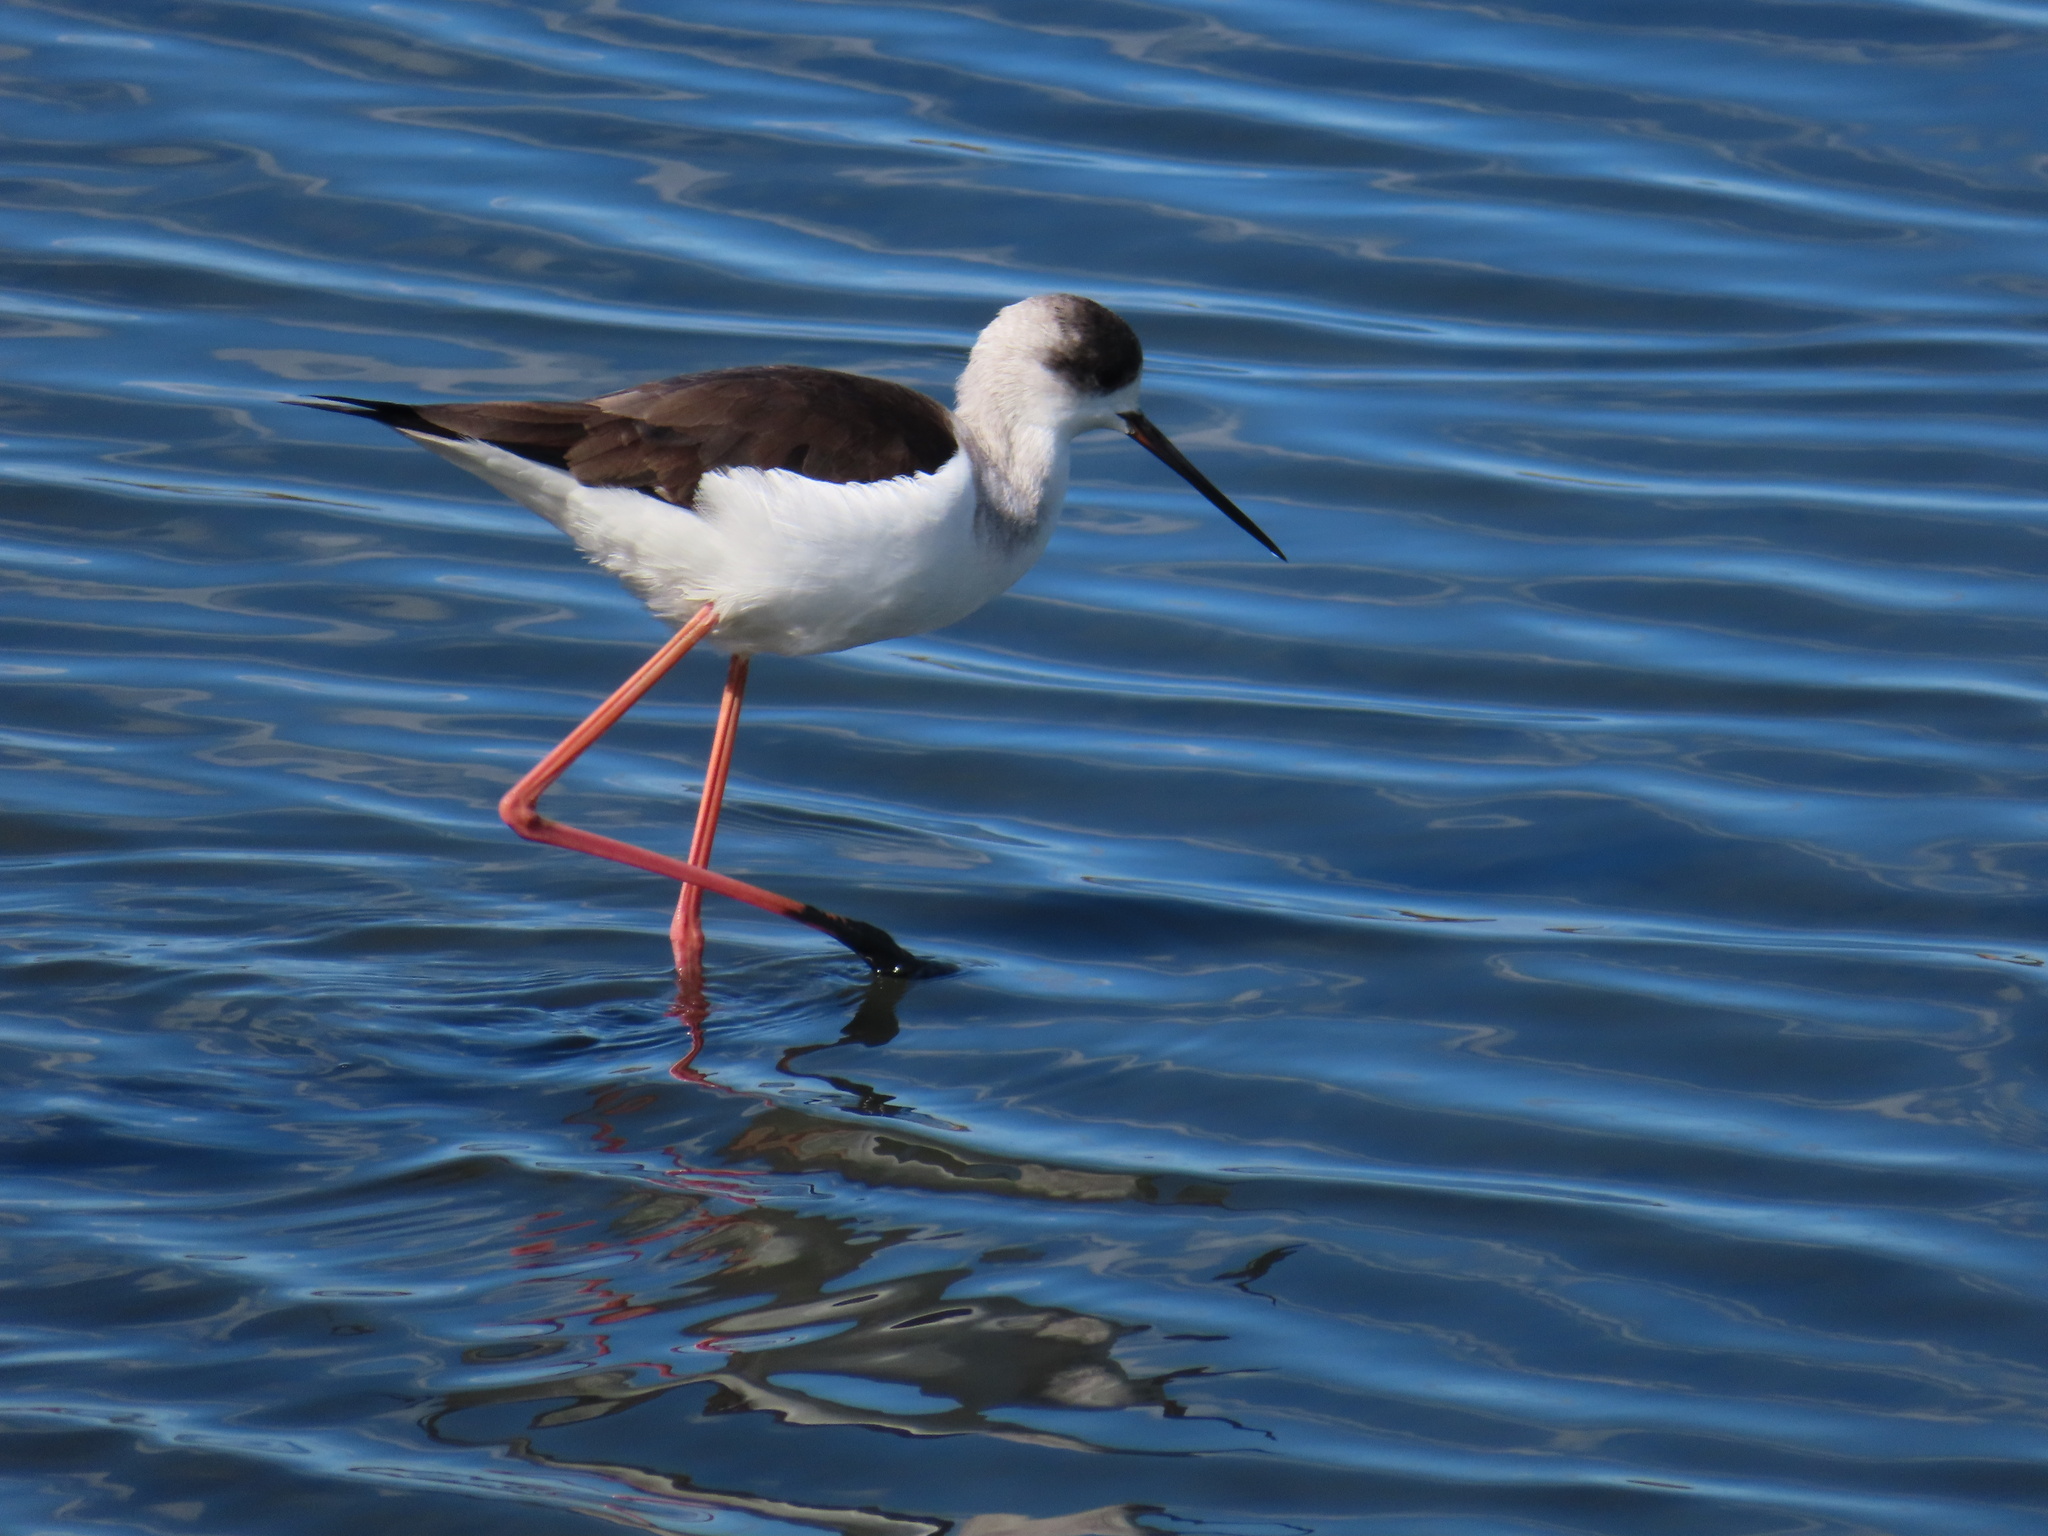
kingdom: Animalia
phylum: Chordata
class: Aves
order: Charadriiformes
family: Recurvirostridae
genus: Himantopus
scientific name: Himantopus himantopus
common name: Black-winged stilt
